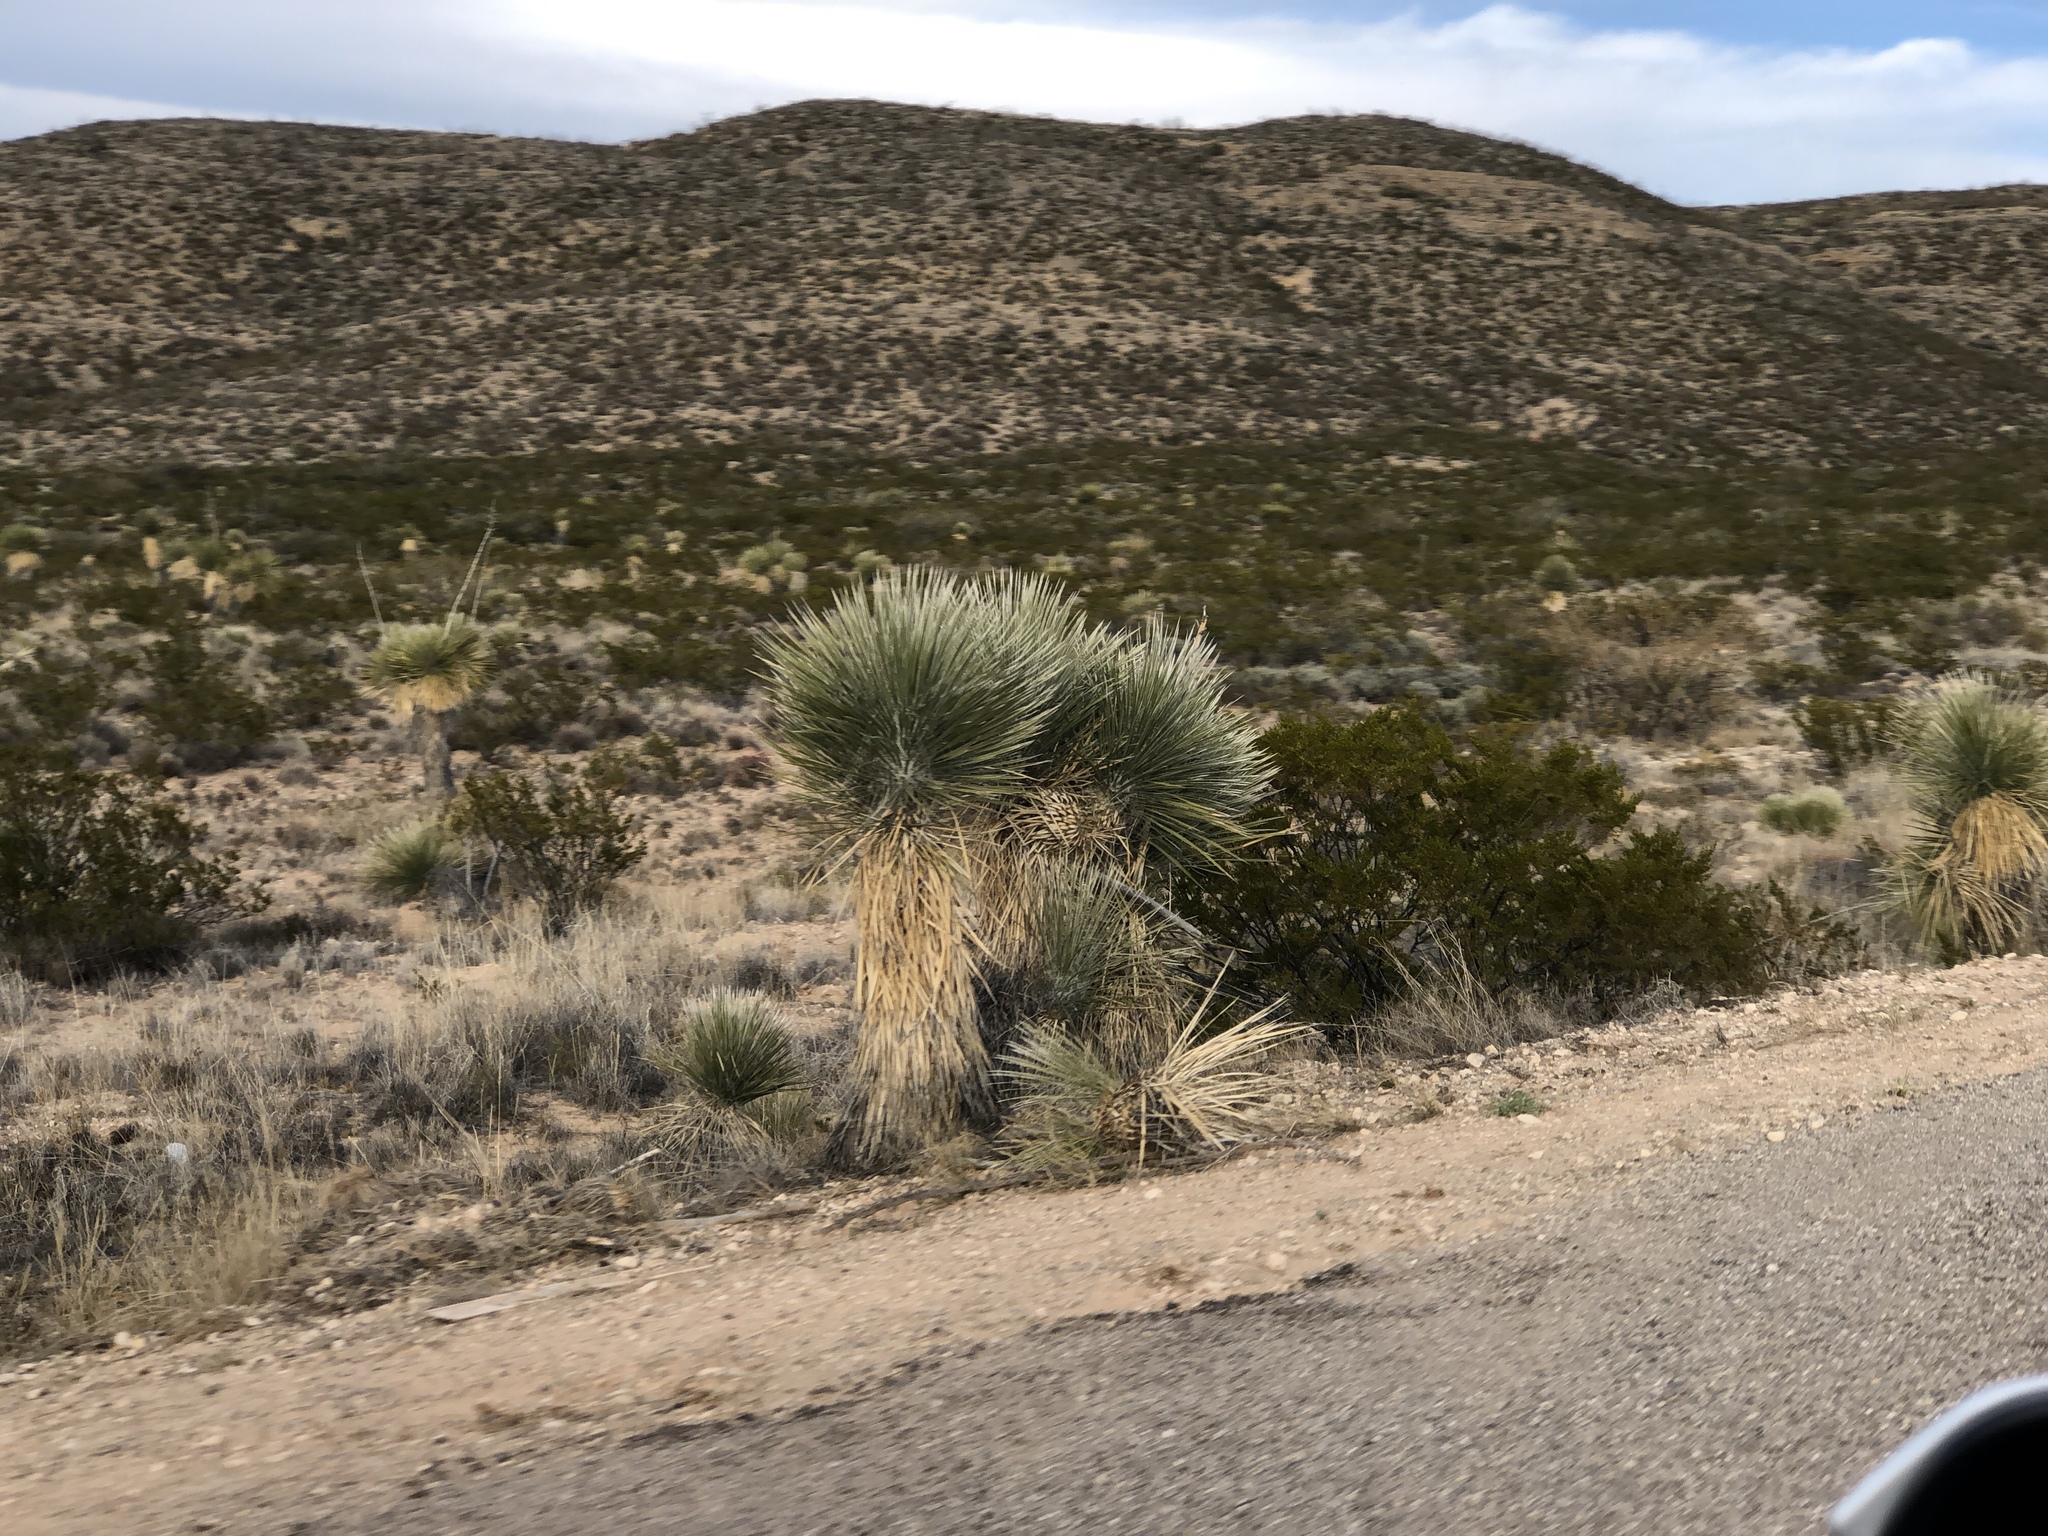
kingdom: Plantae
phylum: Tracheophyta
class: Liliopsida
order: Asparagales
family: Asparagaceae
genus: Yucca
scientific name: Yucca elata
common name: Palmella
